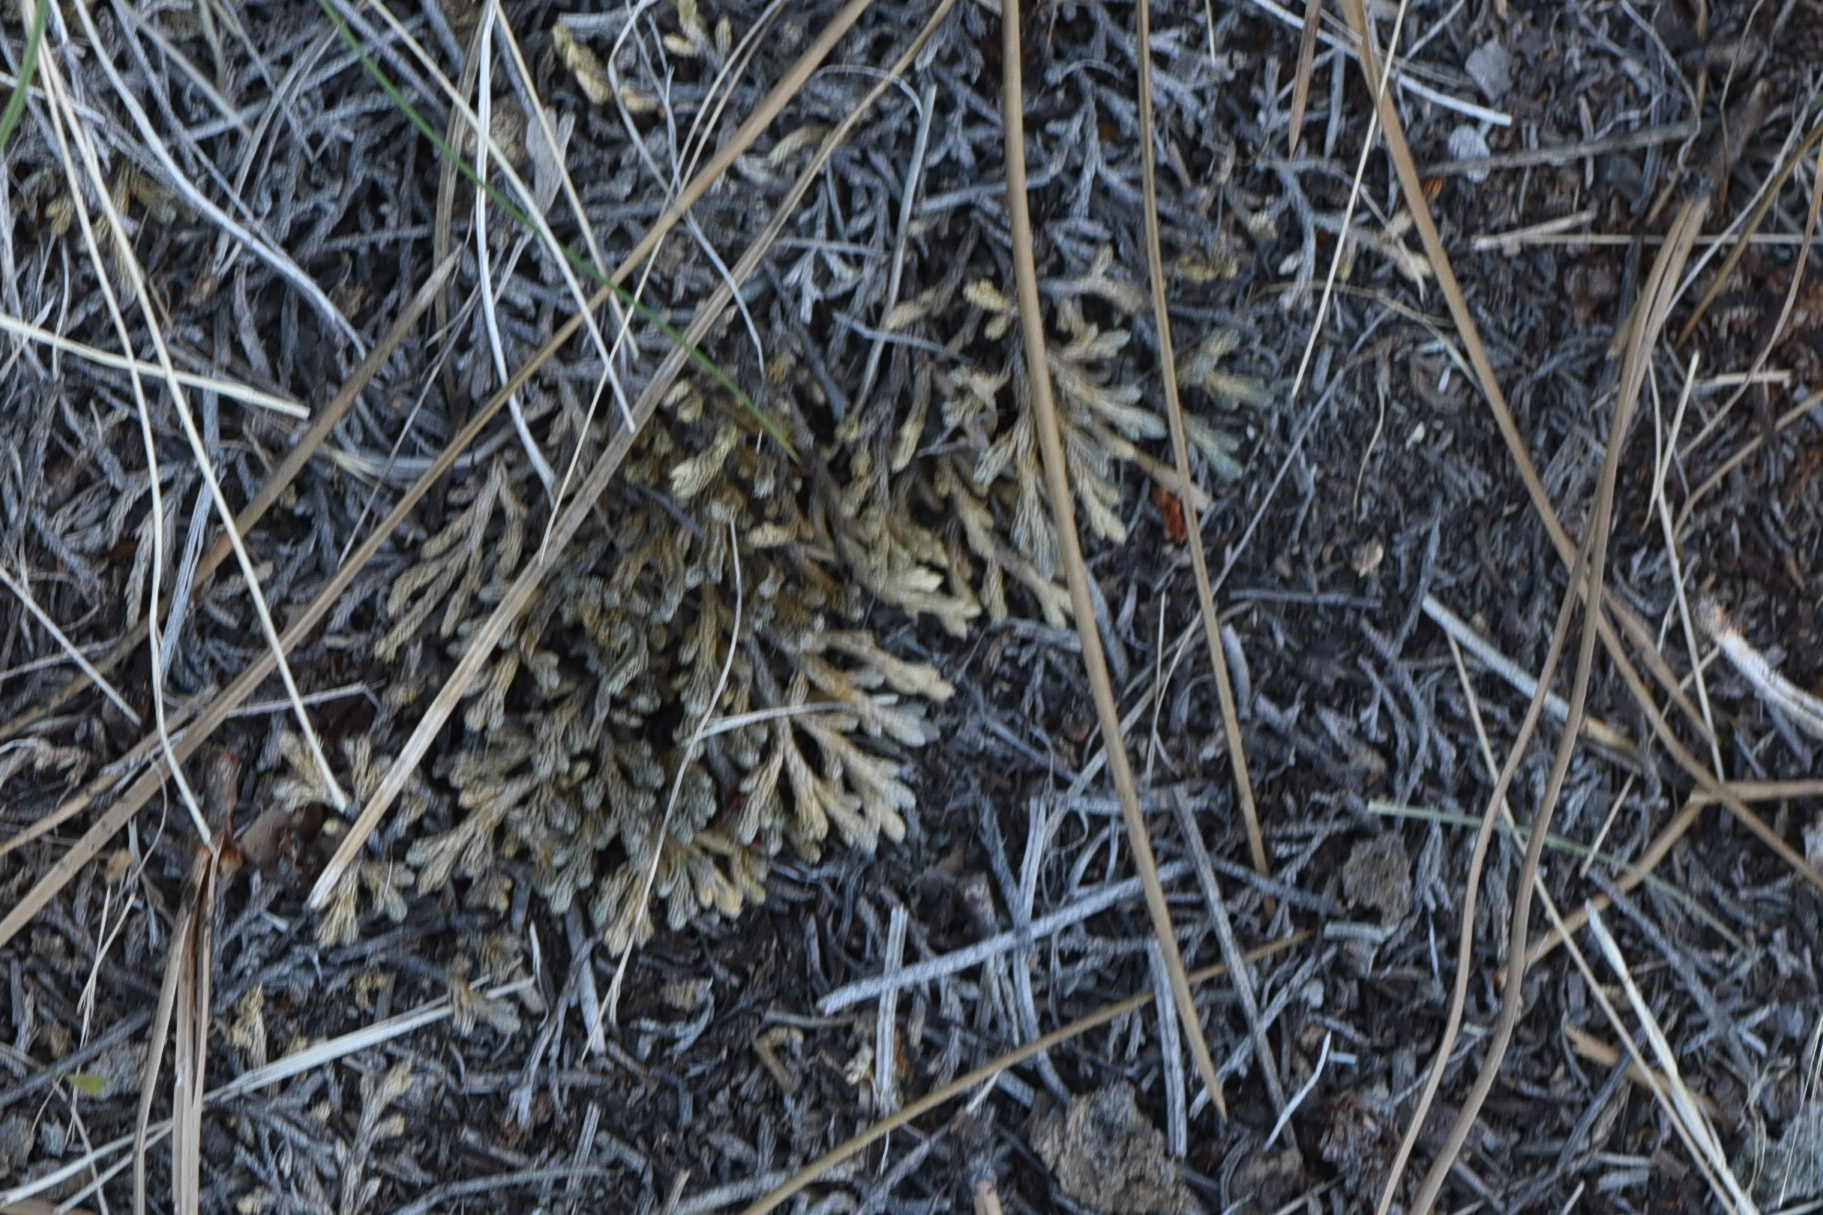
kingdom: Plantae
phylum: Tracheophyta
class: Lycopodiopsida
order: Selaginellales
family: Selaginellaceae
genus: Selaginella
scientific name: Selaginella wallacei
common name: Wallace's selaginella
